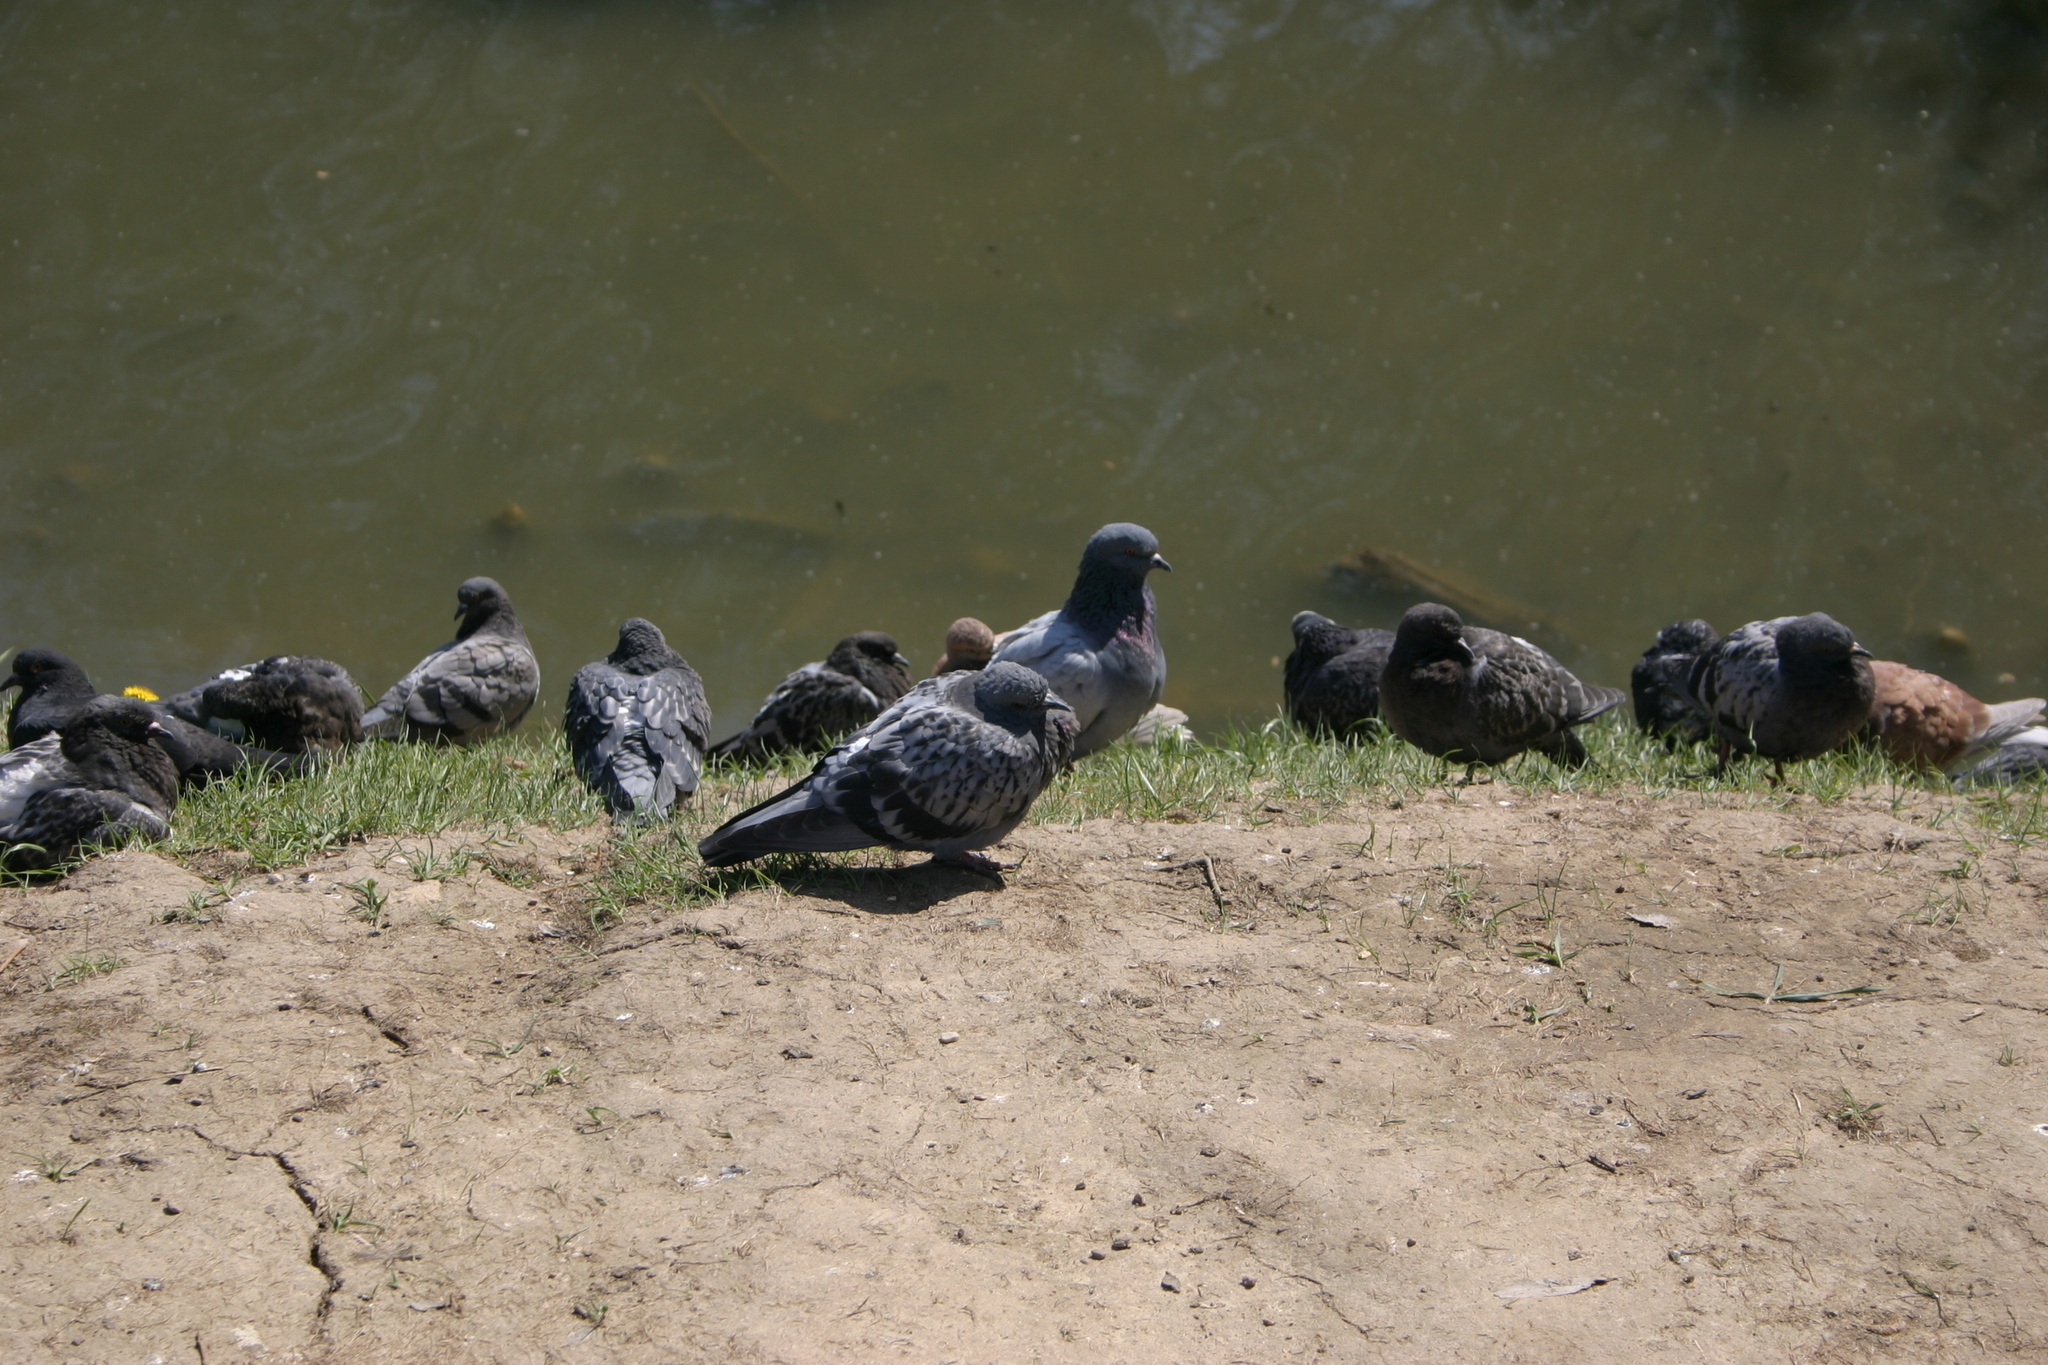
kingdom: Animalia
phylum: Chordata
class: Aves
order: Columbiformes
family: Columbidae
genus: Columba
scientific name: Columba livia
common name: Rock pigeon
